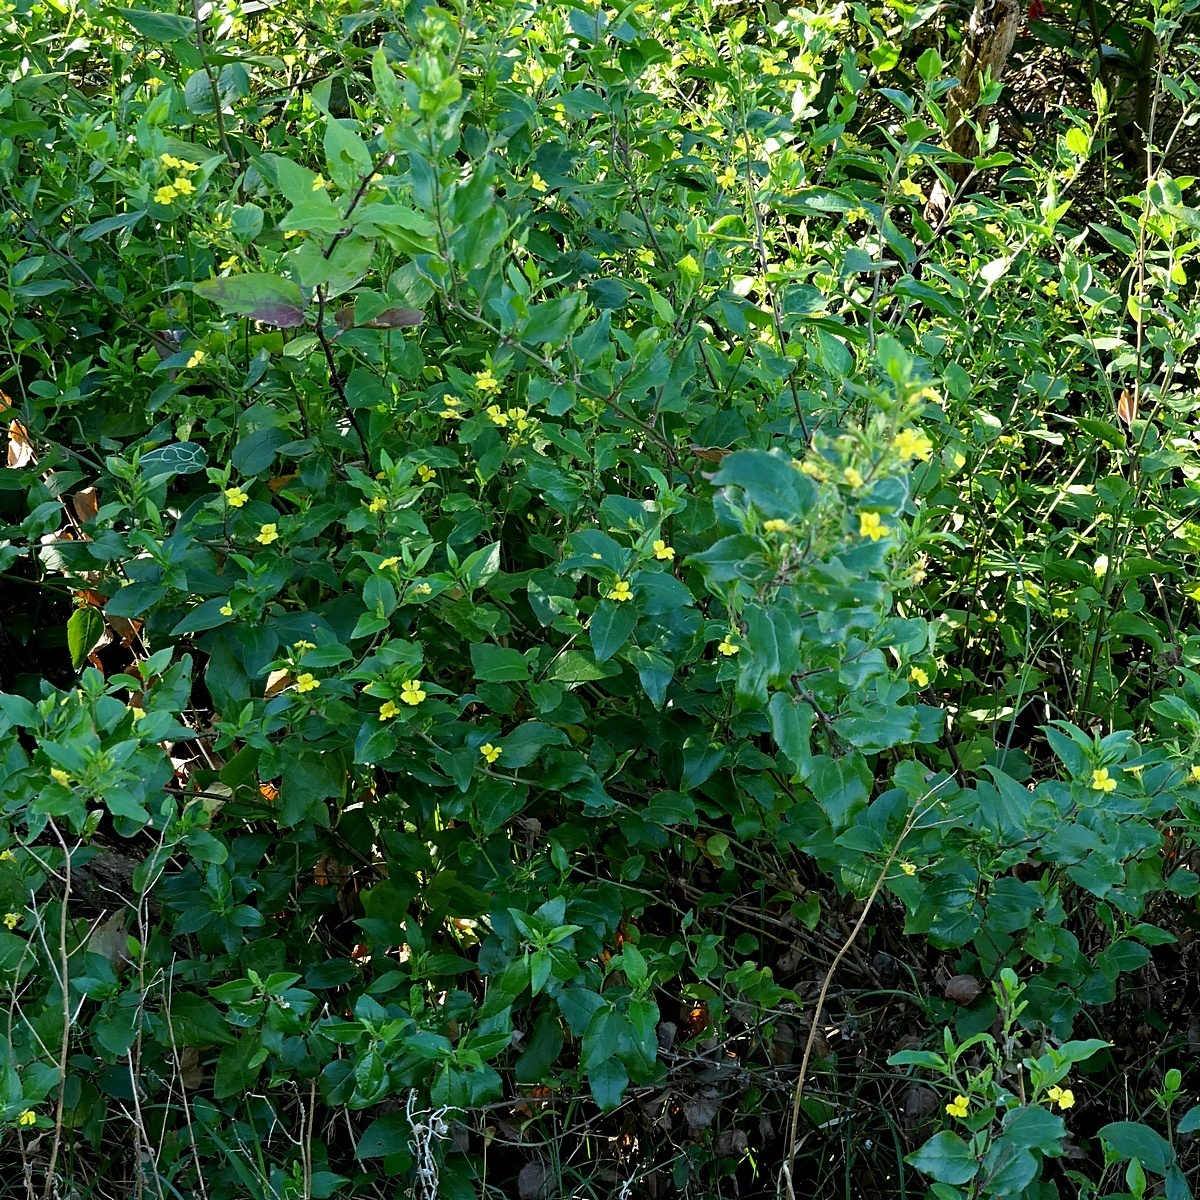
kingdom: Plantae
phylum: Tracheophyta
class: Magnoliopsida
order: Asterales
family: Goodeniaceae
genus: Goodenia
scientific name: Goodenia ovata
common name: Hop goodenia
